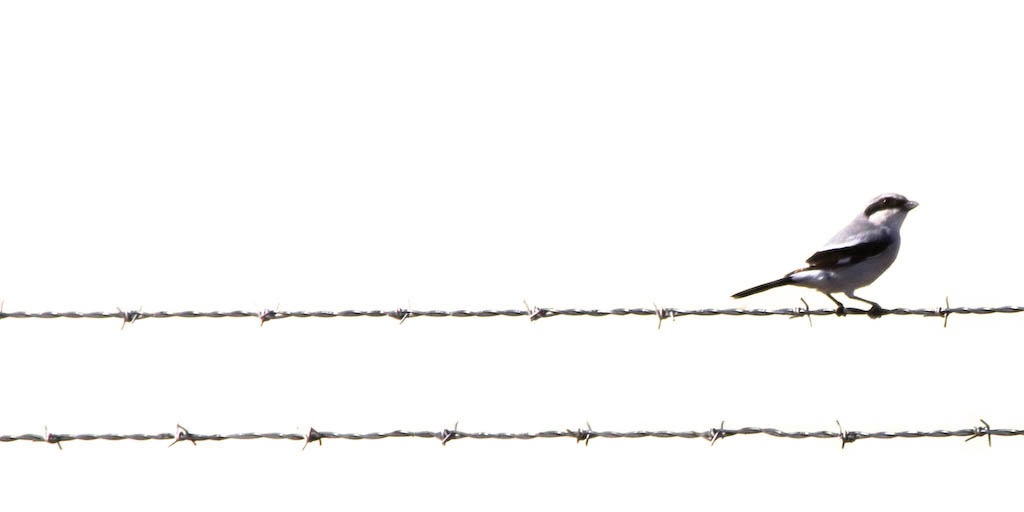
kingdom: Animalia
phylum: Chordata
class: Aves
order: Passeriformes
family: Laniidae
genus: Lanius
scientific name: Lanius ludovicianus
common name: Loggerhead shrike
